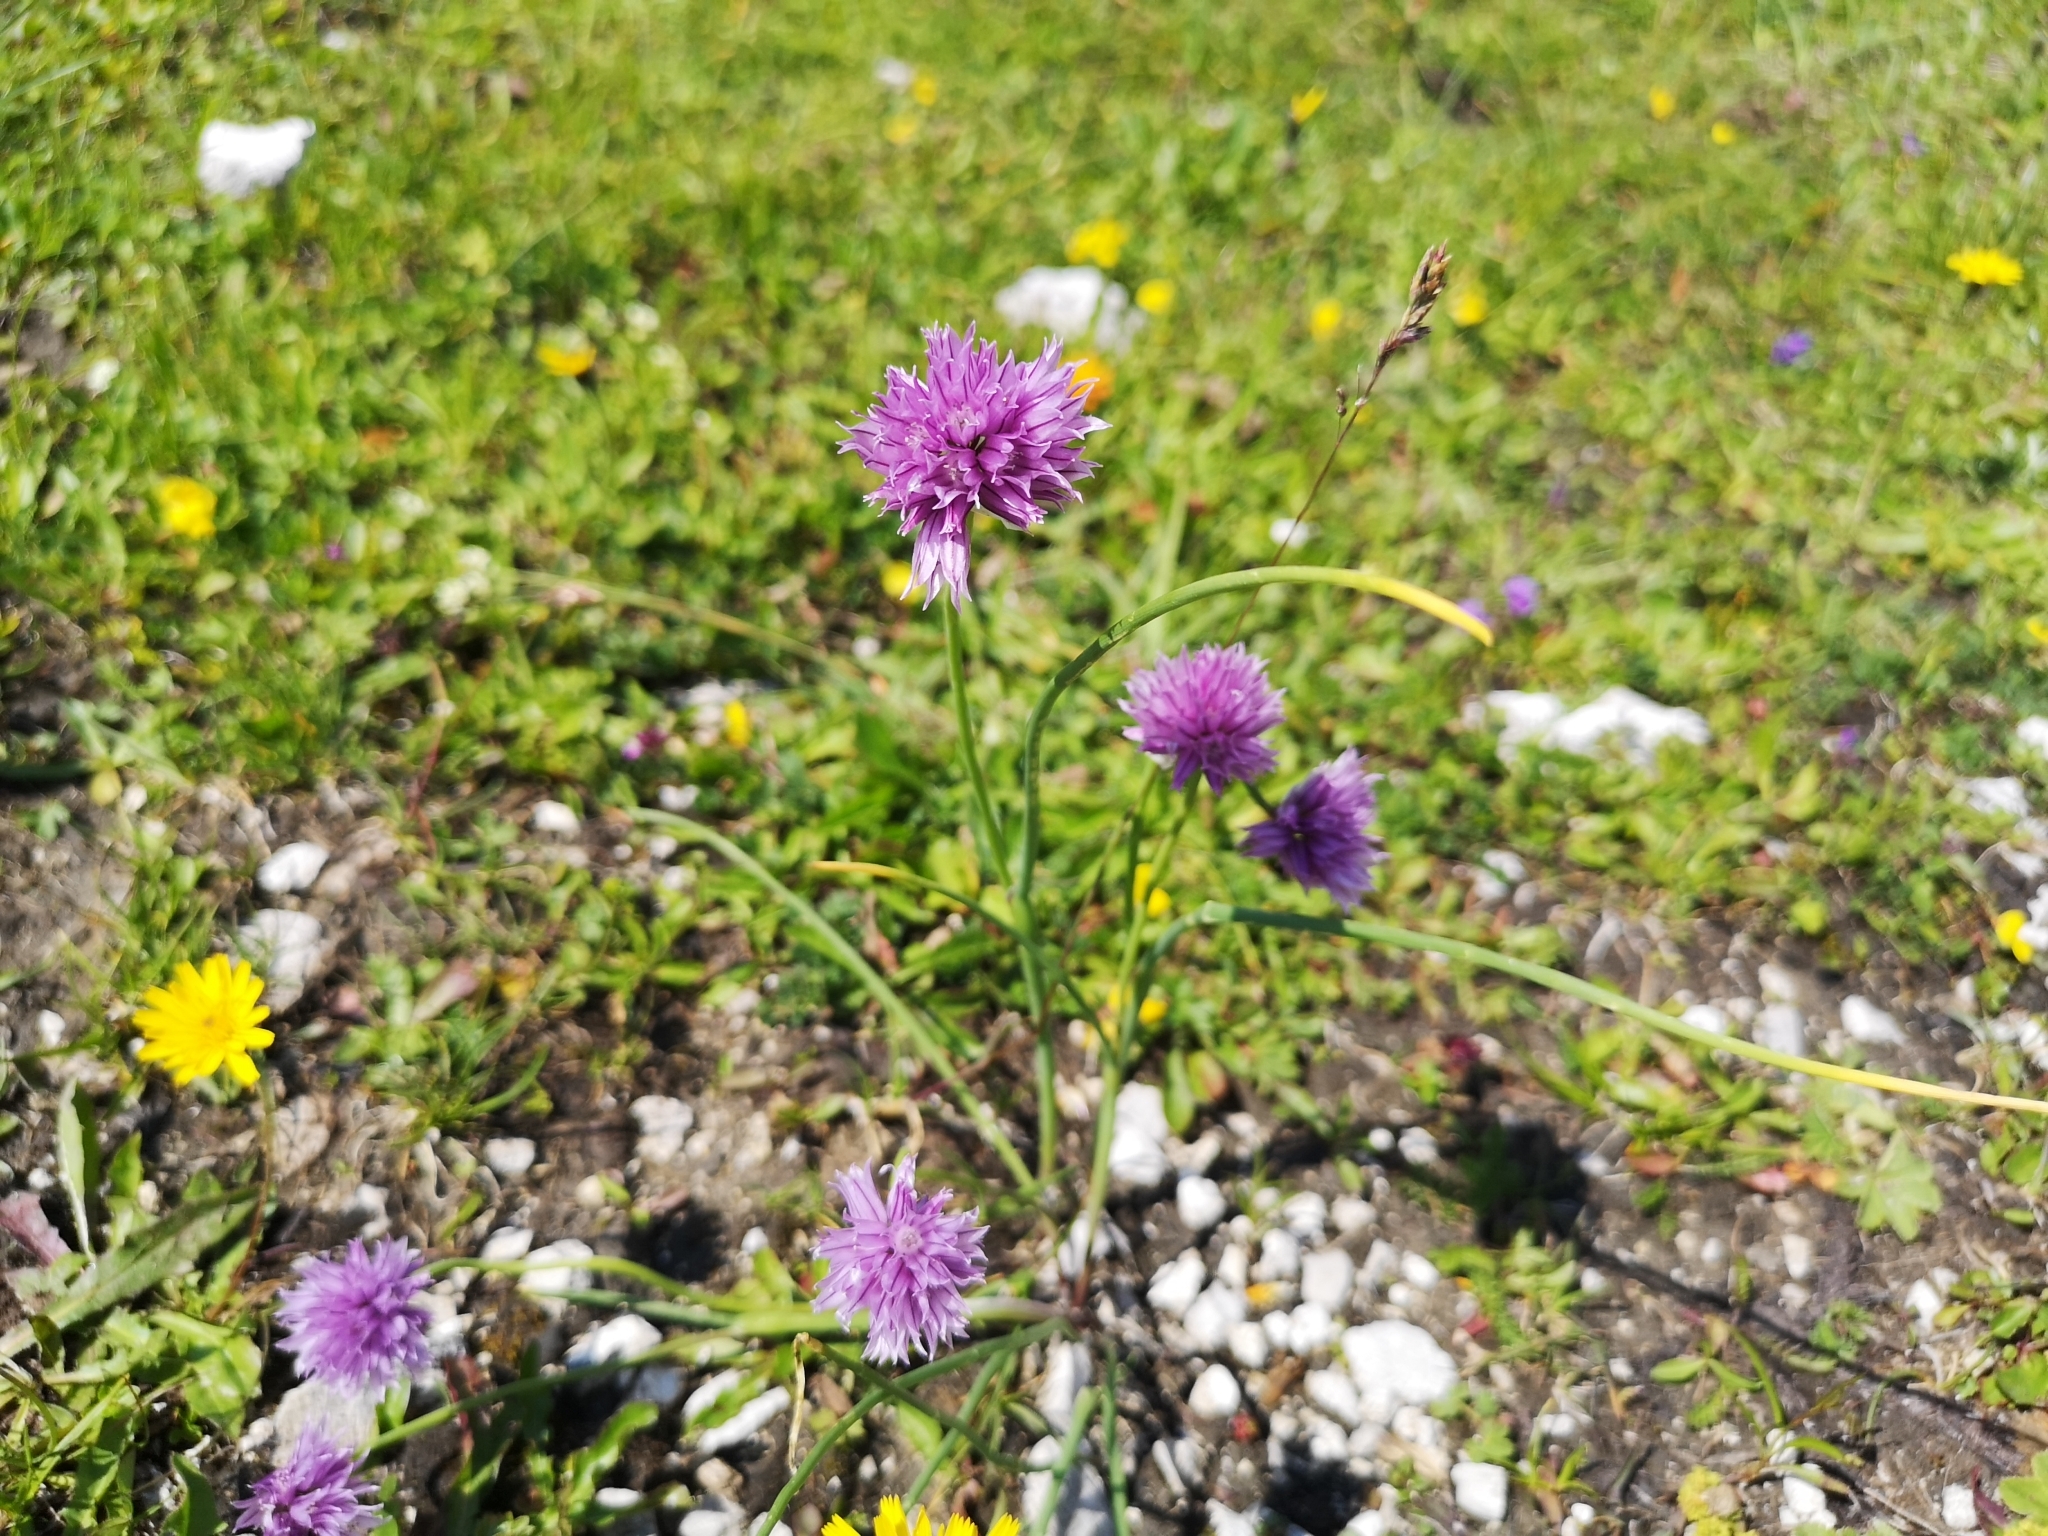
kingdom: Plantae
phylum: Tracheophyta
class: Liliopsida
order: Asparagales
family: Amaryllidaceae
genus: Allium
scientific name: Allium schoenoprasum
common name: Chives
